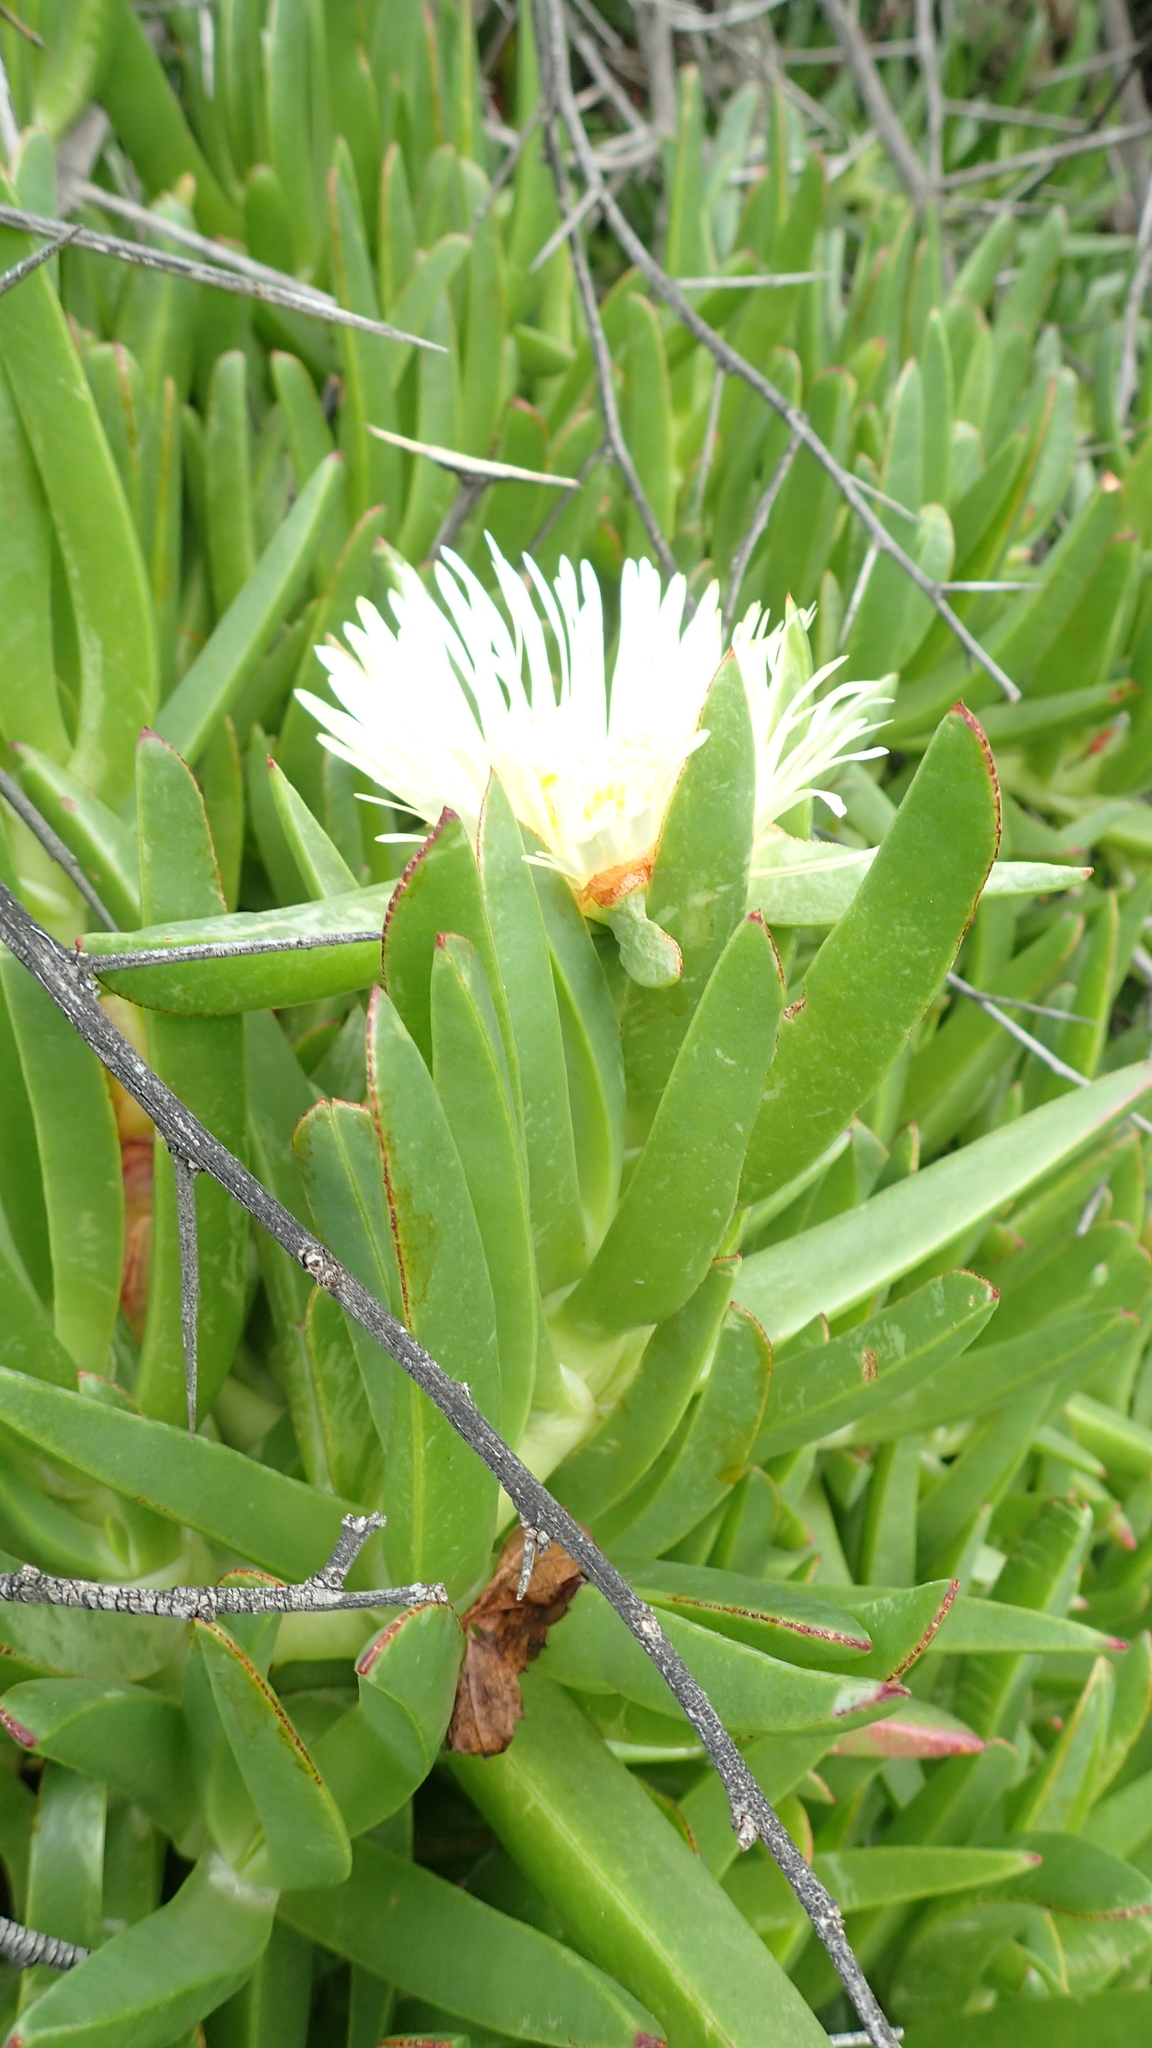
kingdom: Plantae
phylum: Tracheophyta
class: Magnoliopsida
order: Caryophyllales
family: Aizoaceae
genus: Carpobrotus
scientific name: Carpobrotus edulis
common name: Hottentot-fig
